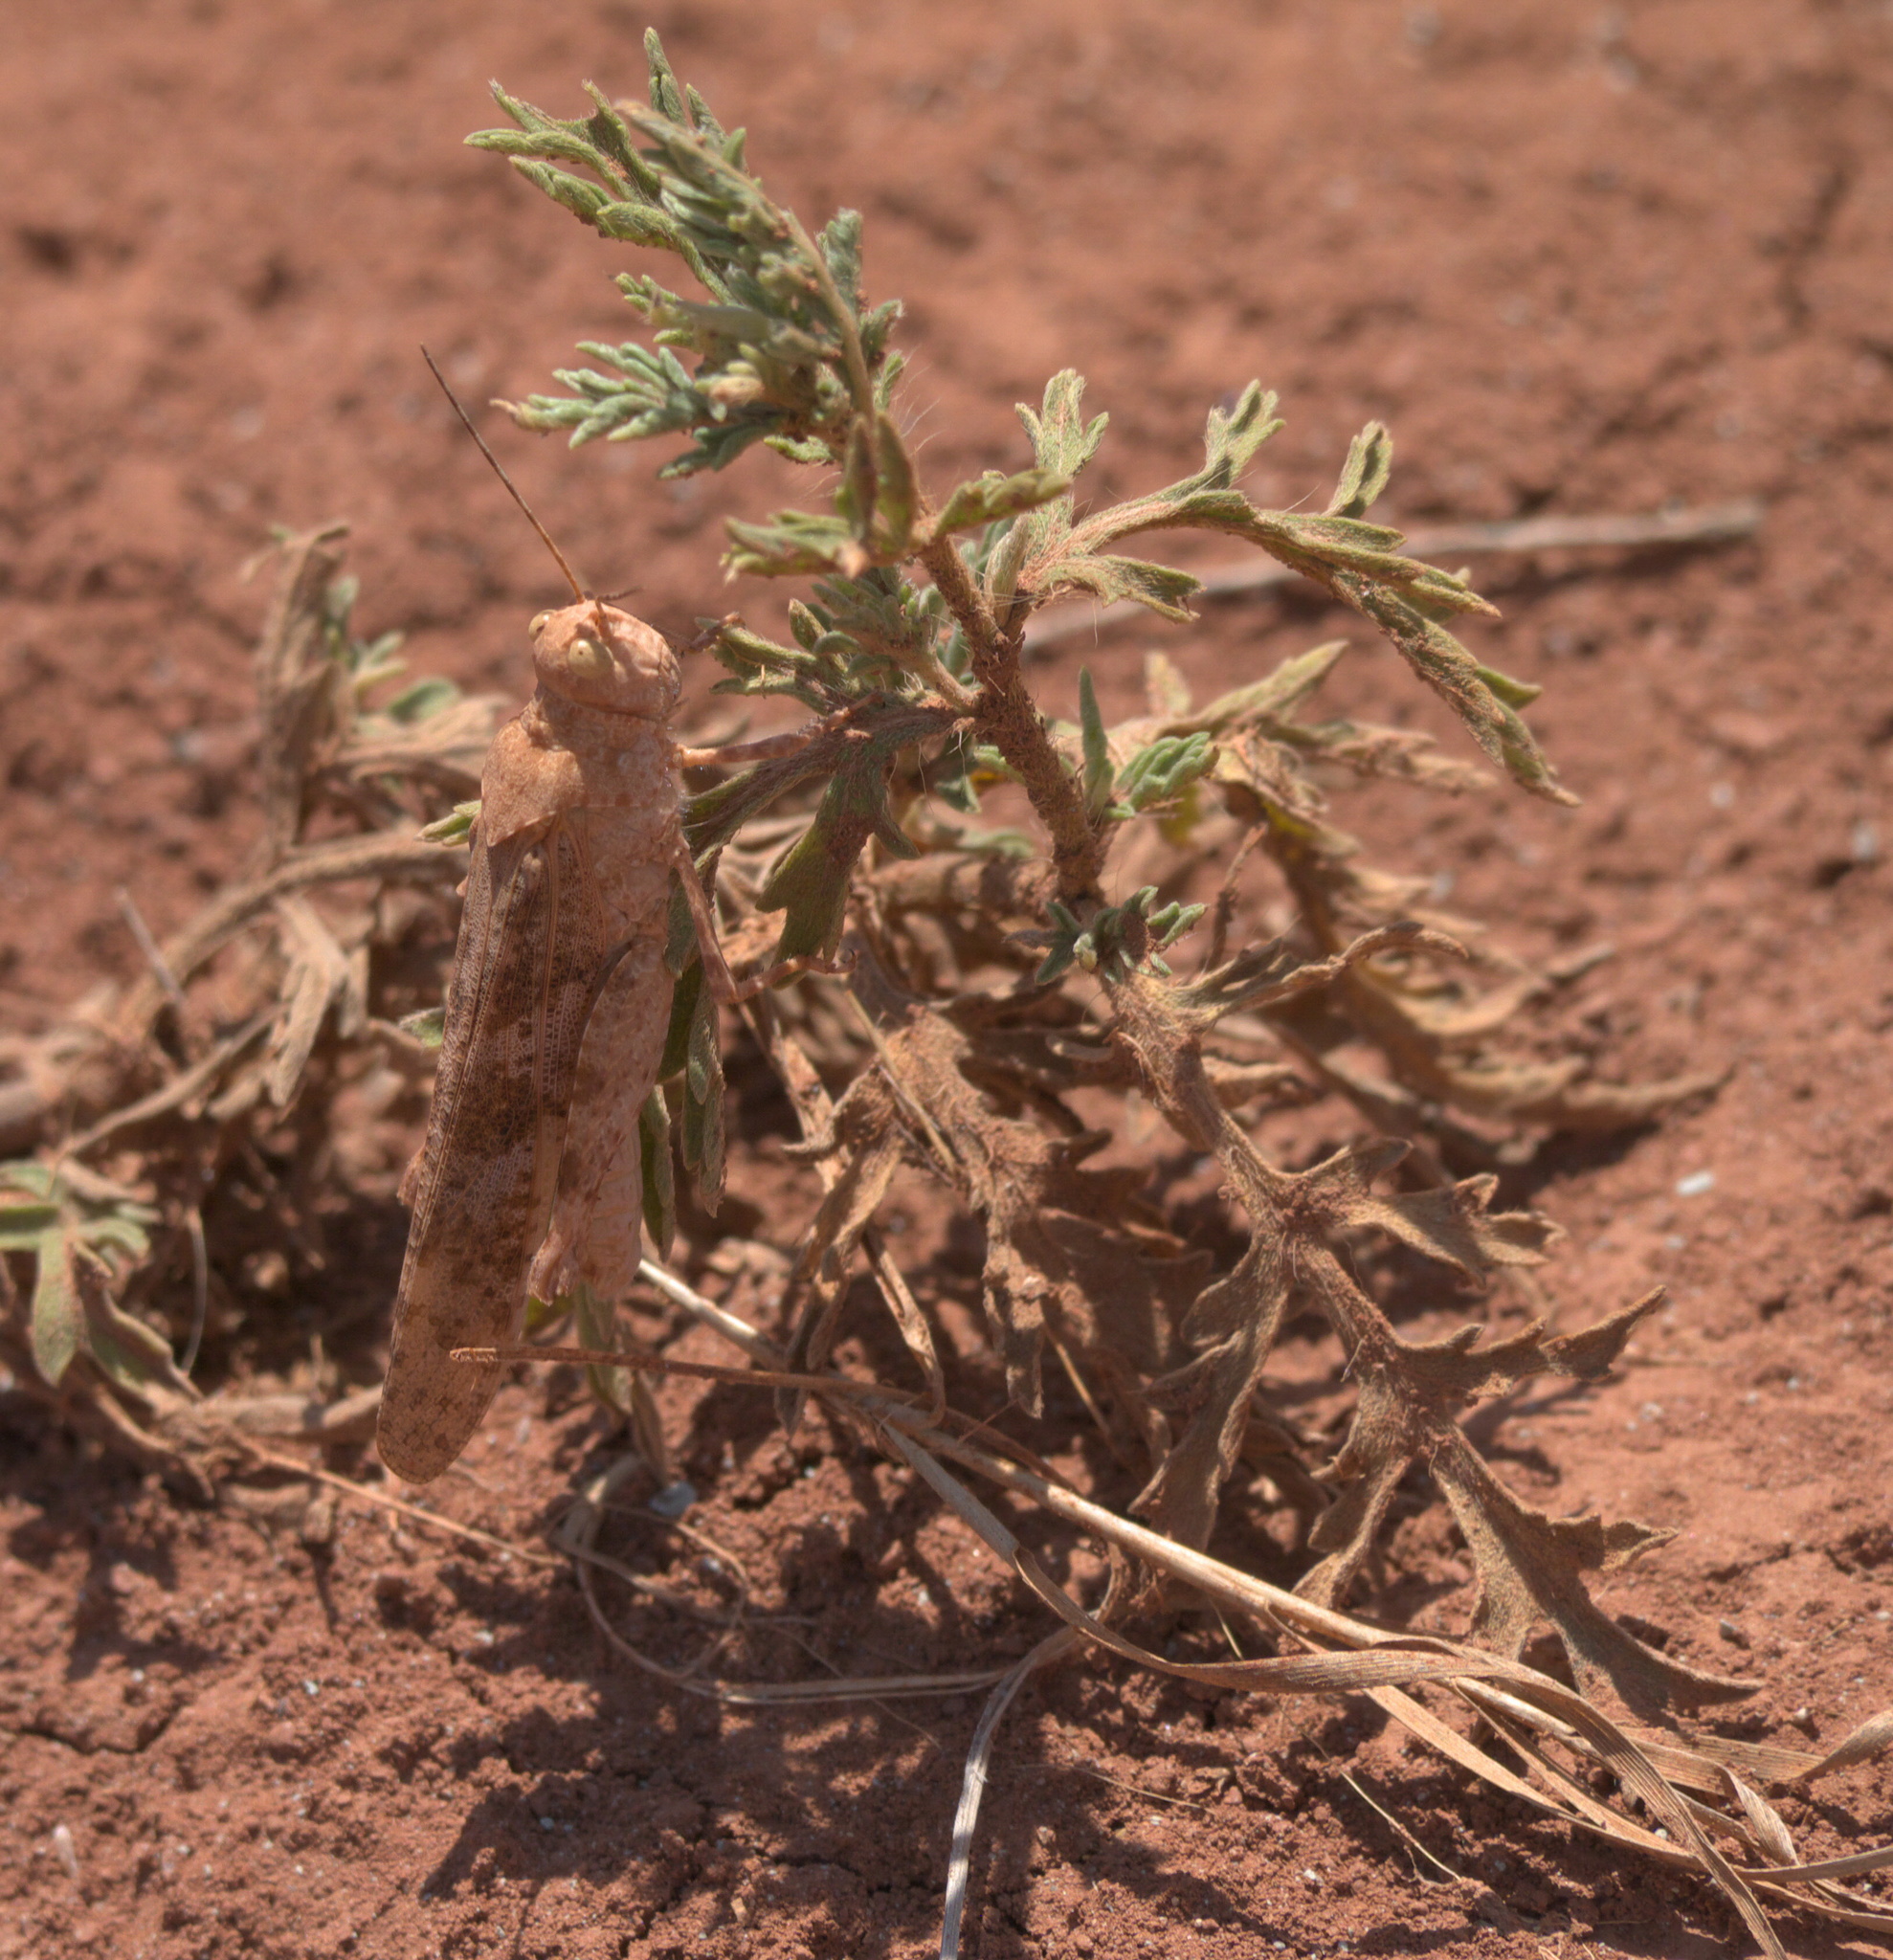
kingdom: Animalia
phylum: Arthropoda
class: Insecta
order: Orthoptera
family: Acrididae
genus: Circotettix
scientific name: Circotettix rabula
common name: Wrangler grasshopper
